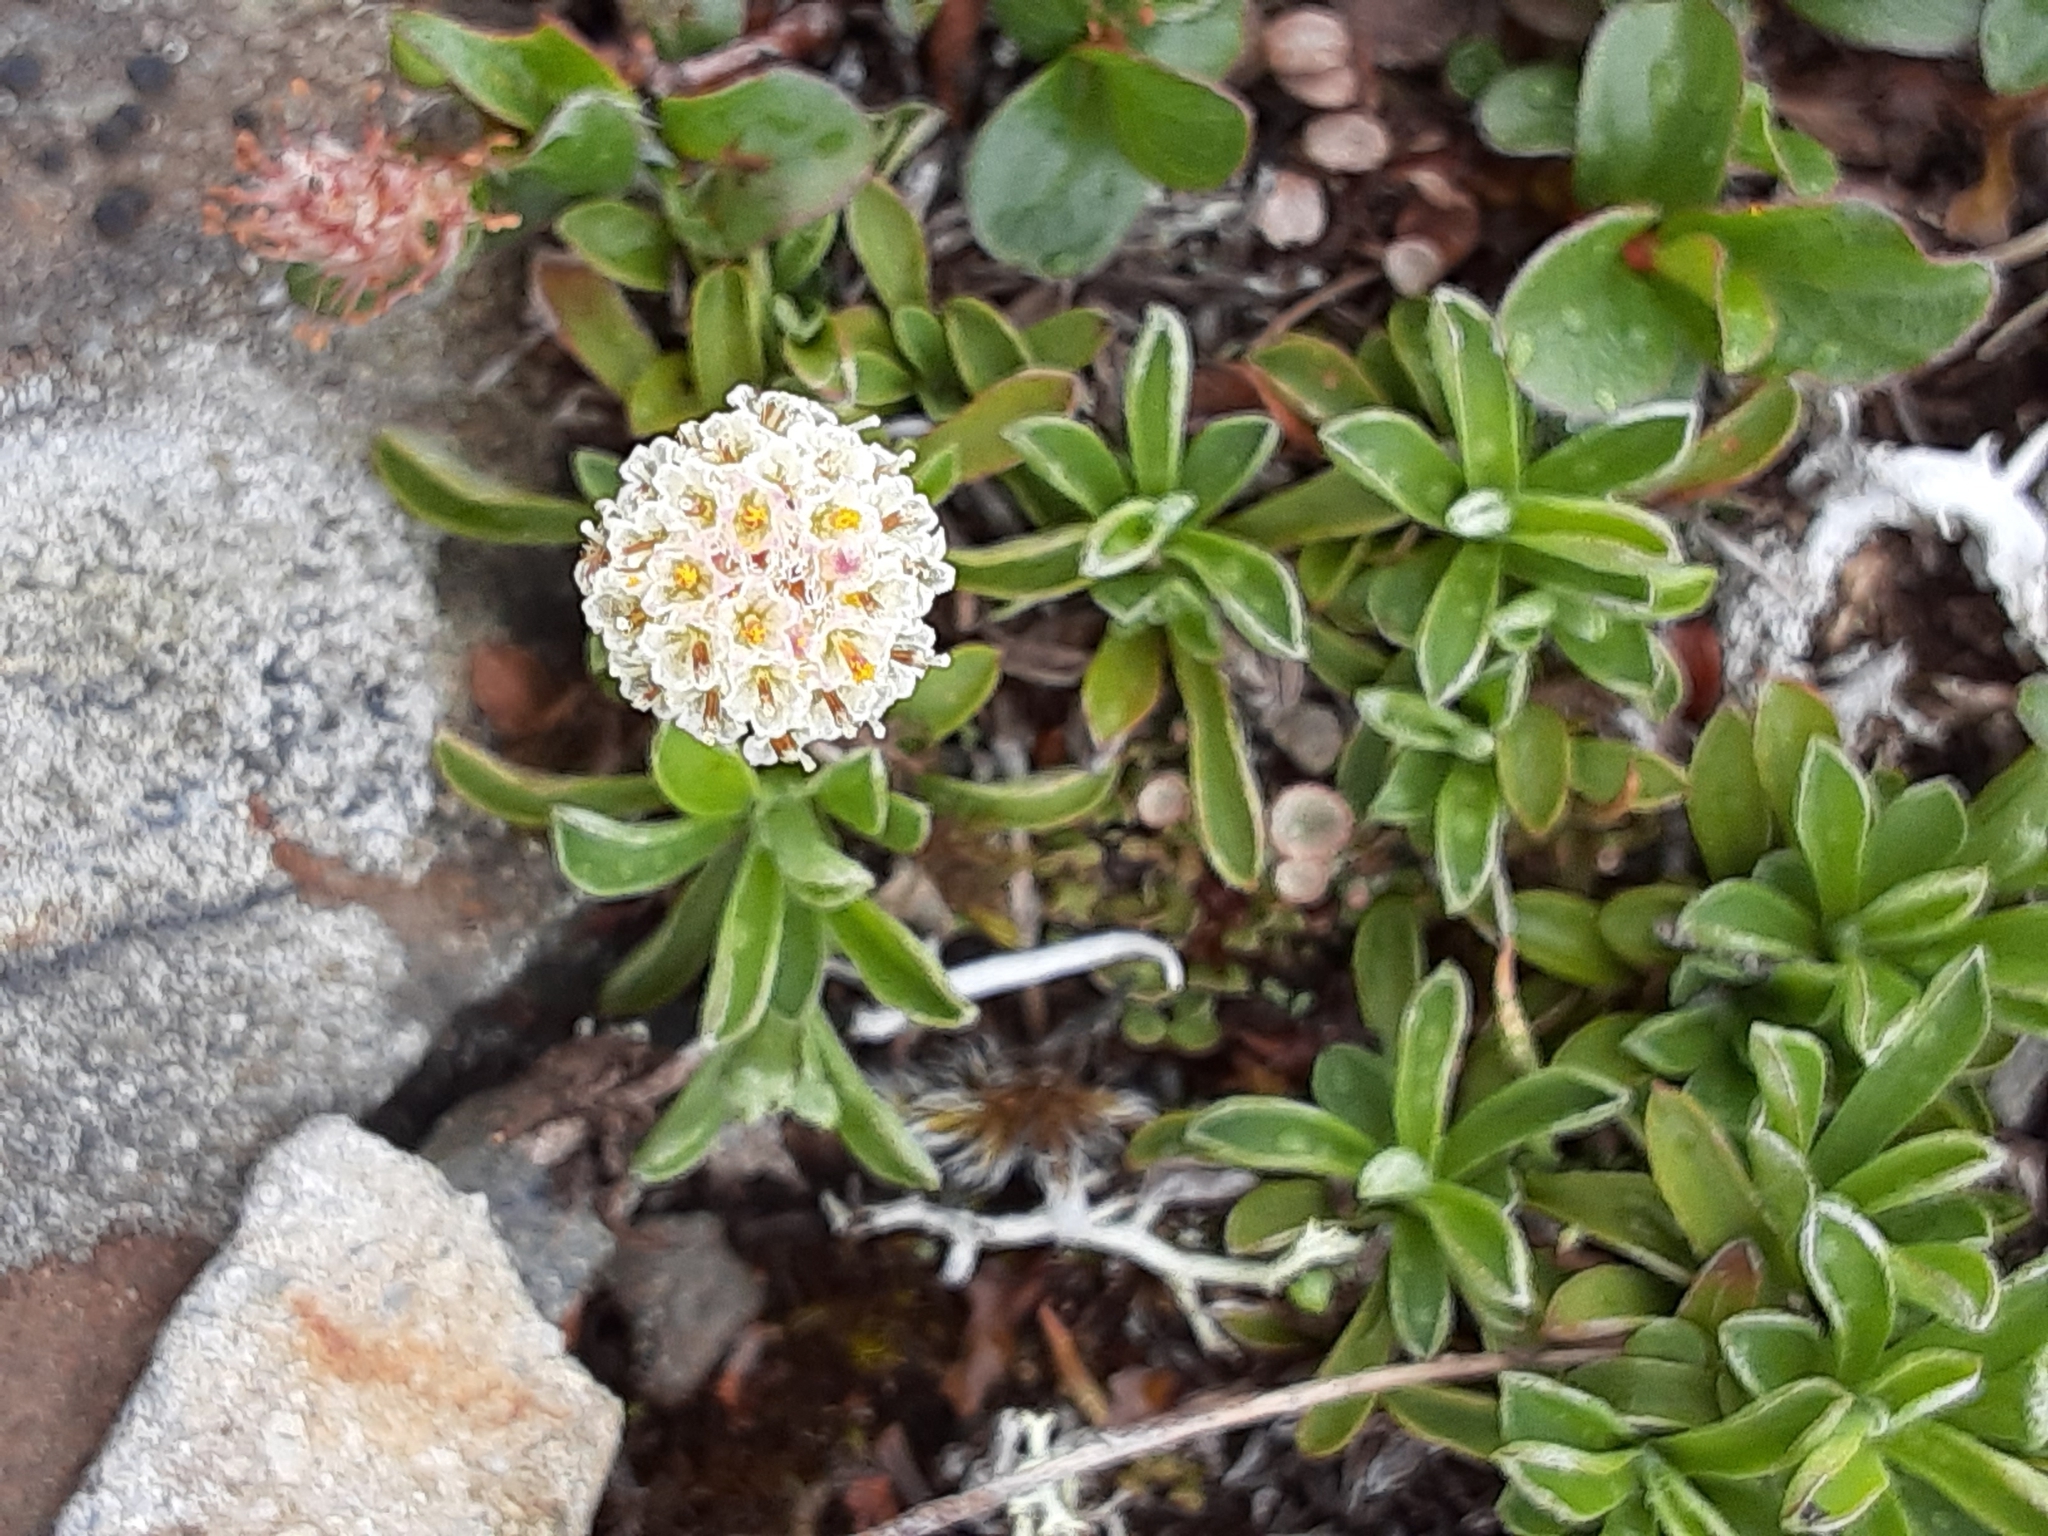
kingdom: Plantae
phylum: Tracheophyta
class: Magnoliopsida
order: Asterales
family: Asteraceae
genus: Antennaria
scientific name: Antennaria monocephala
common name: Pygmy pussytoes
